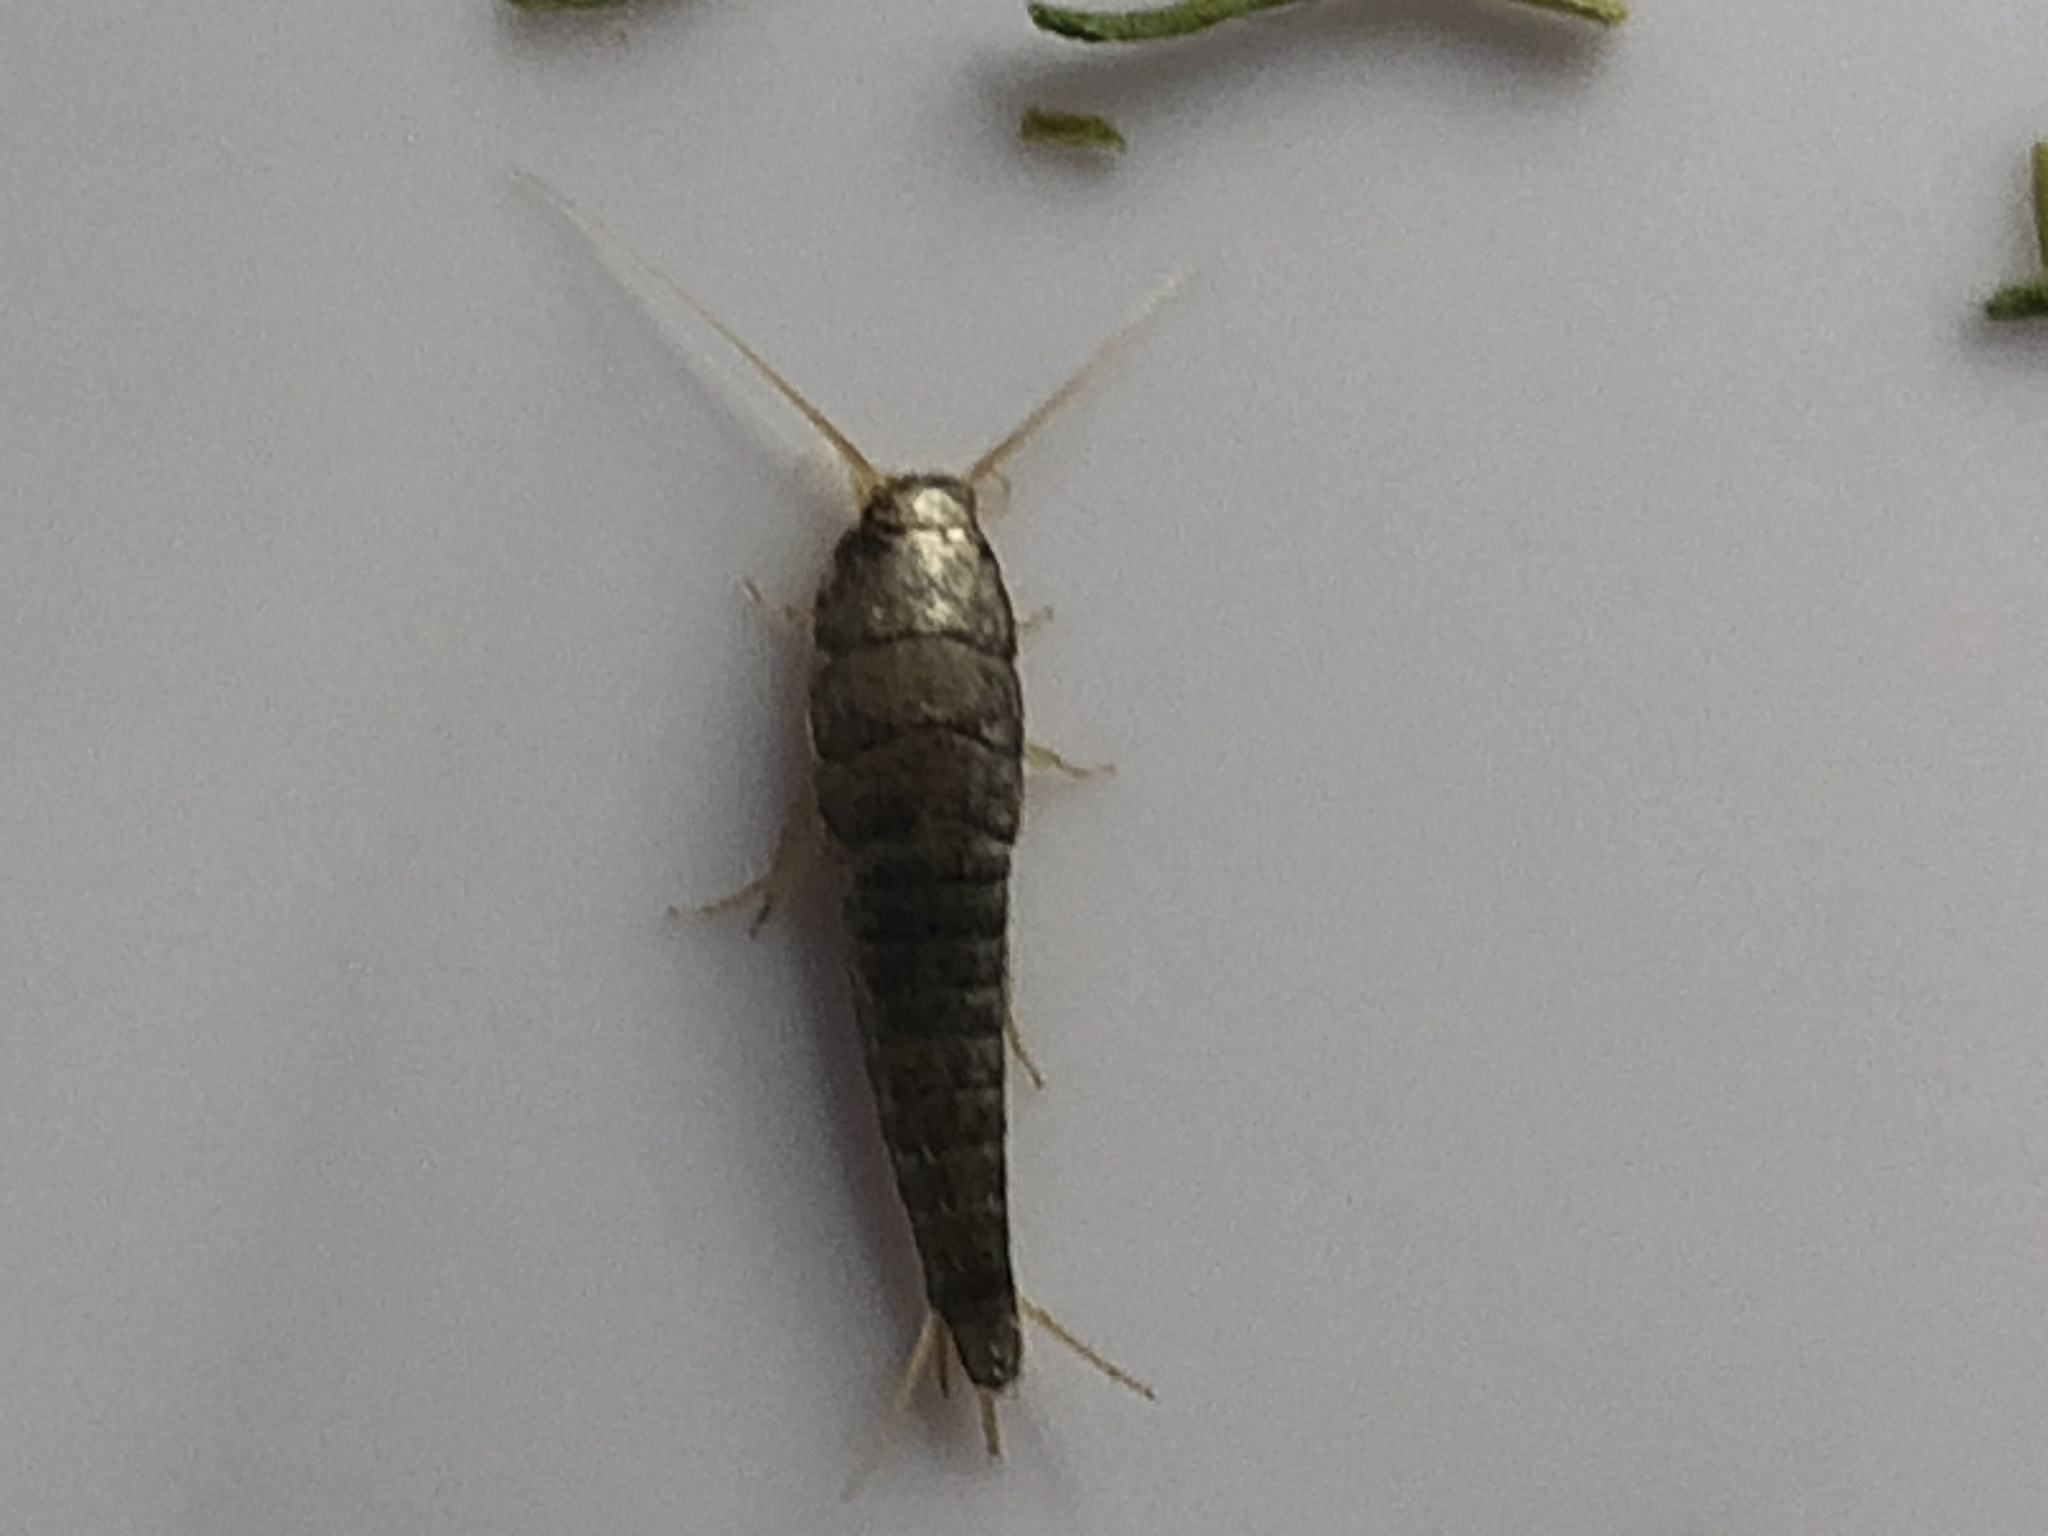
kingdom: Animalia
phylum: Arthropoda
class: Insecta
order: Zygentoma
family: Lepismatidae
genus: Lepisma
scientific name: Lepisma saccharinum
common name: Silverfish
